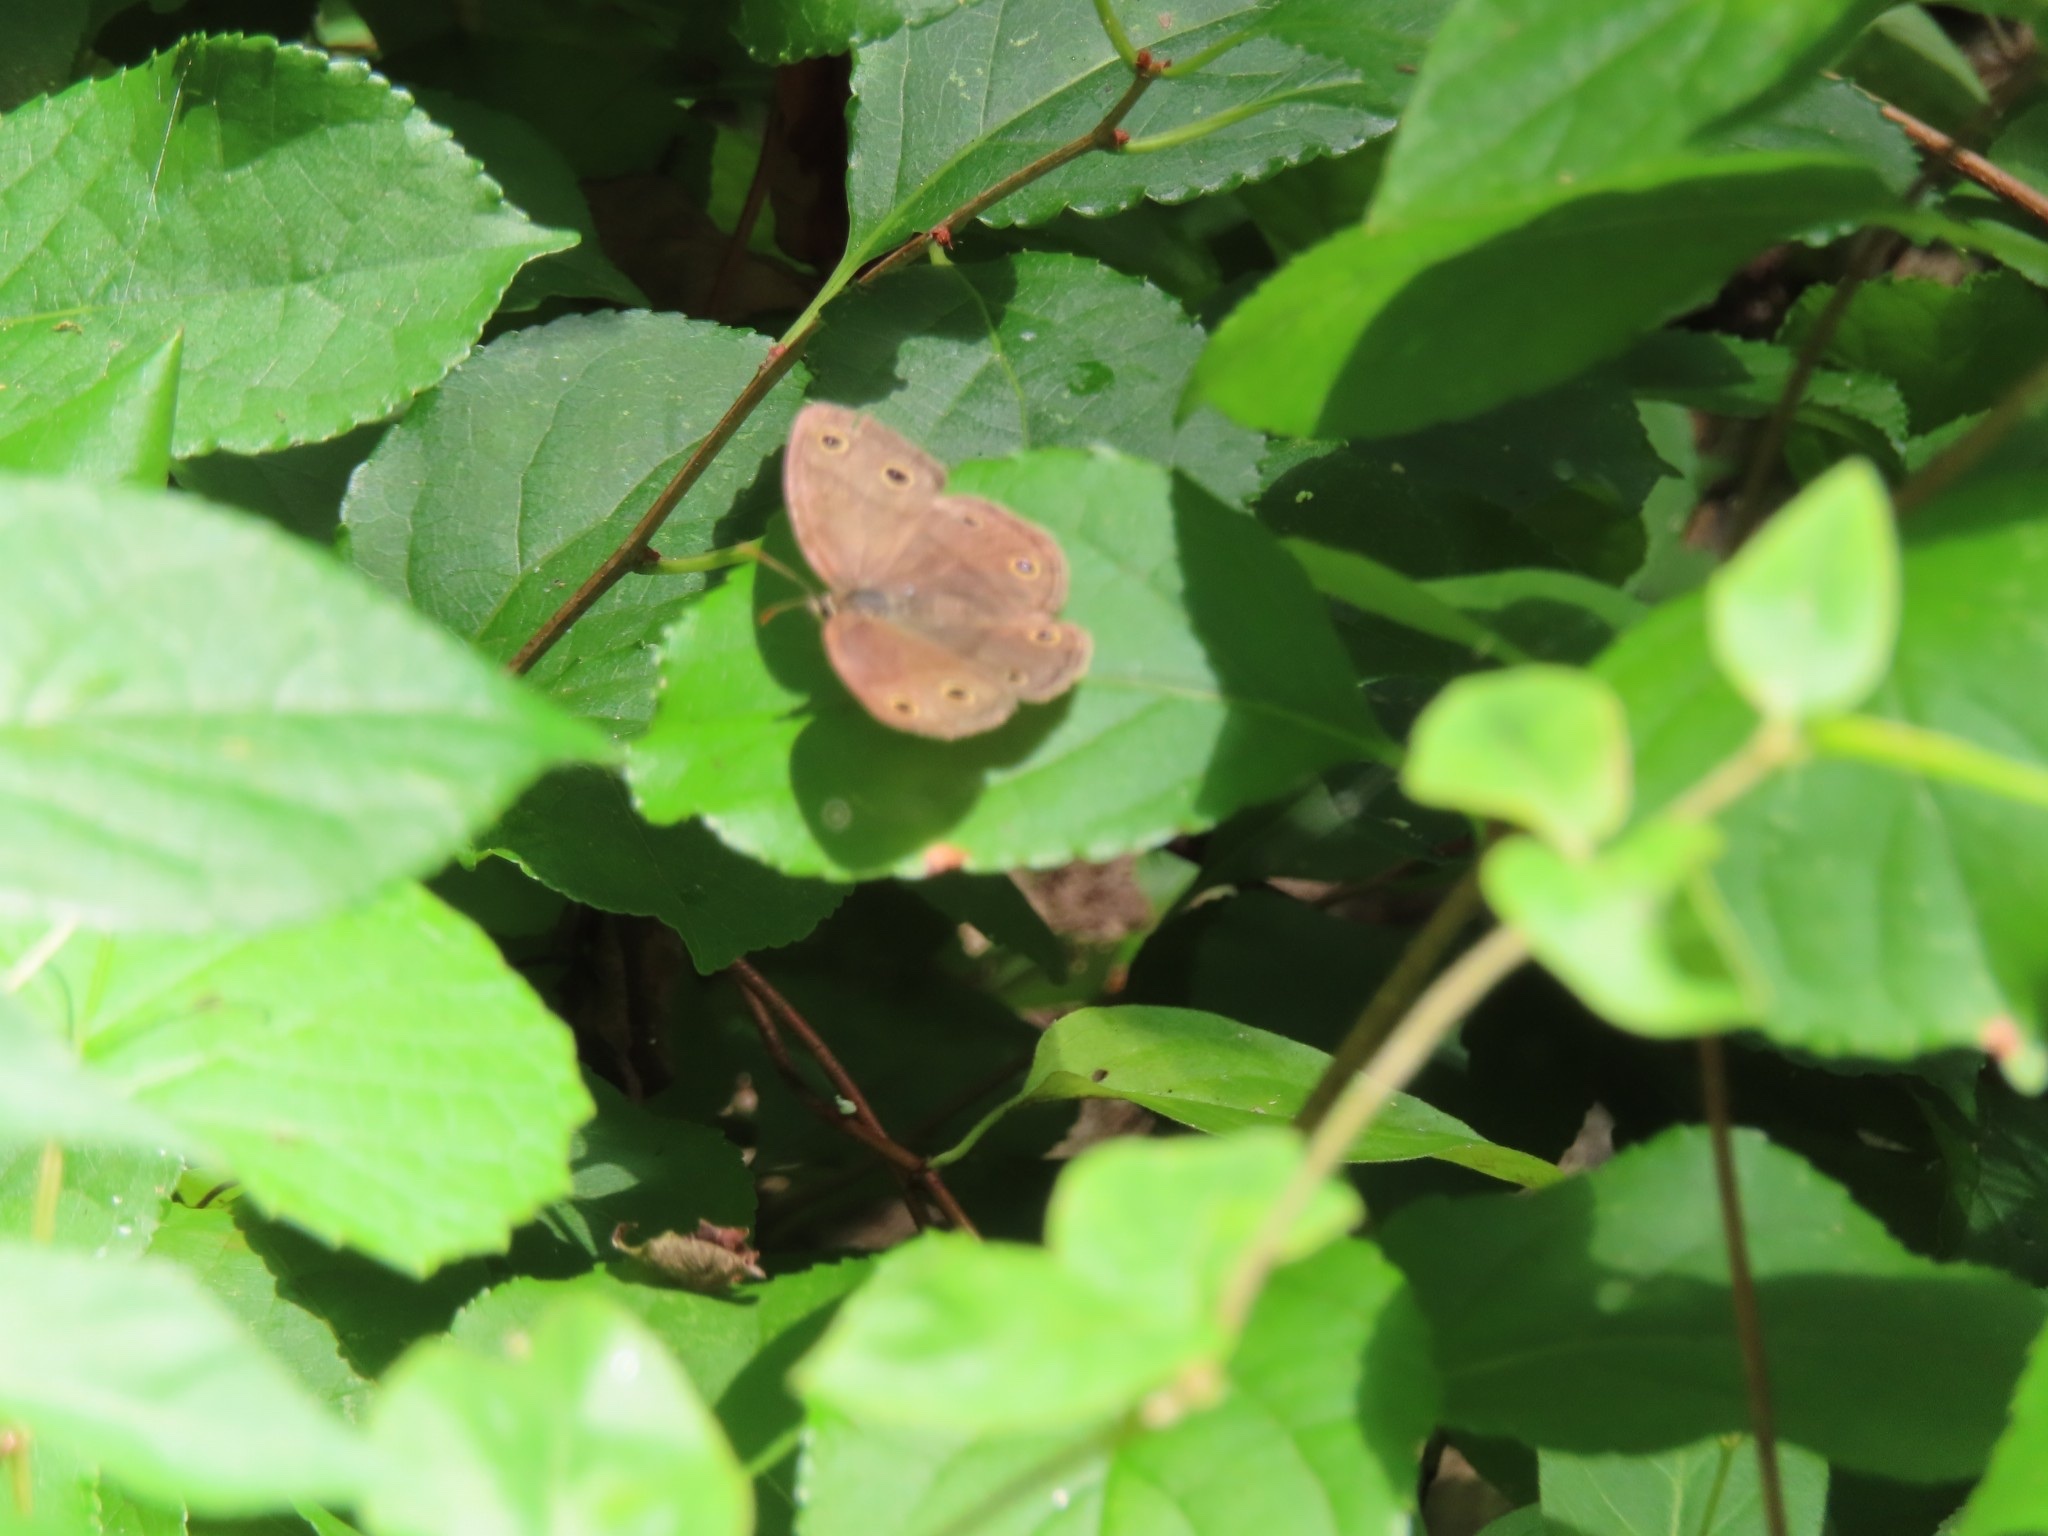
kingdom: Animalia
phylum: Arthropoda
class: Insecta
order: Lepidoptera
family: Nymphalidae
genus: Euptychia
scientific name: Euptychia cymela
